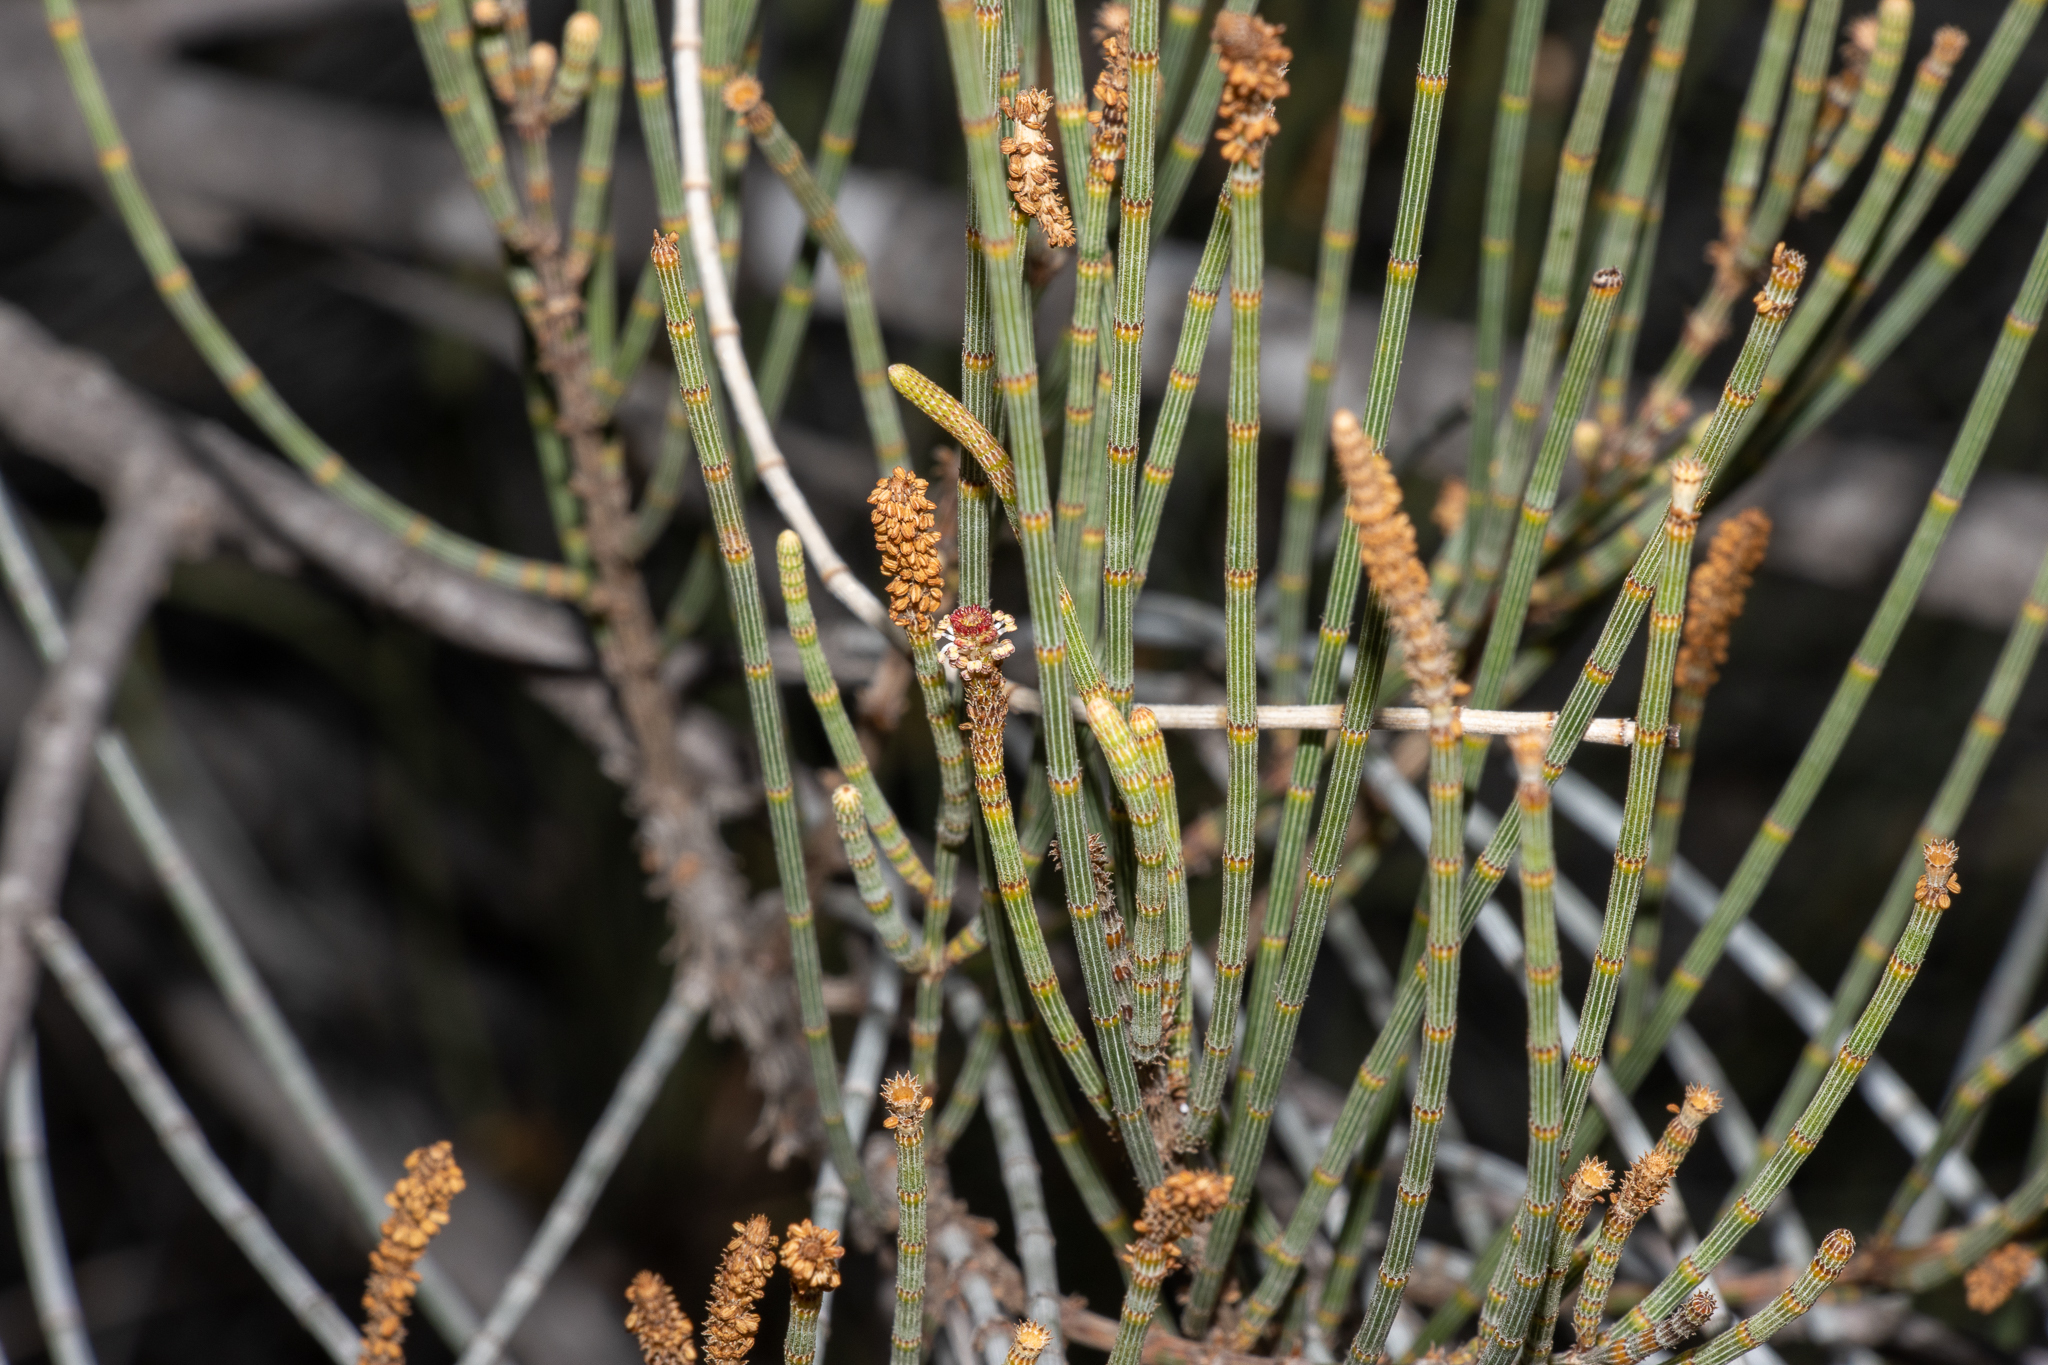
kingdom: Plantae
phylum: Tracheophyta
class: Magnoliopsida
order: Fagales
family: Casuarinaceae
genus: Casuarina
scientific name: Casuarina pauper
